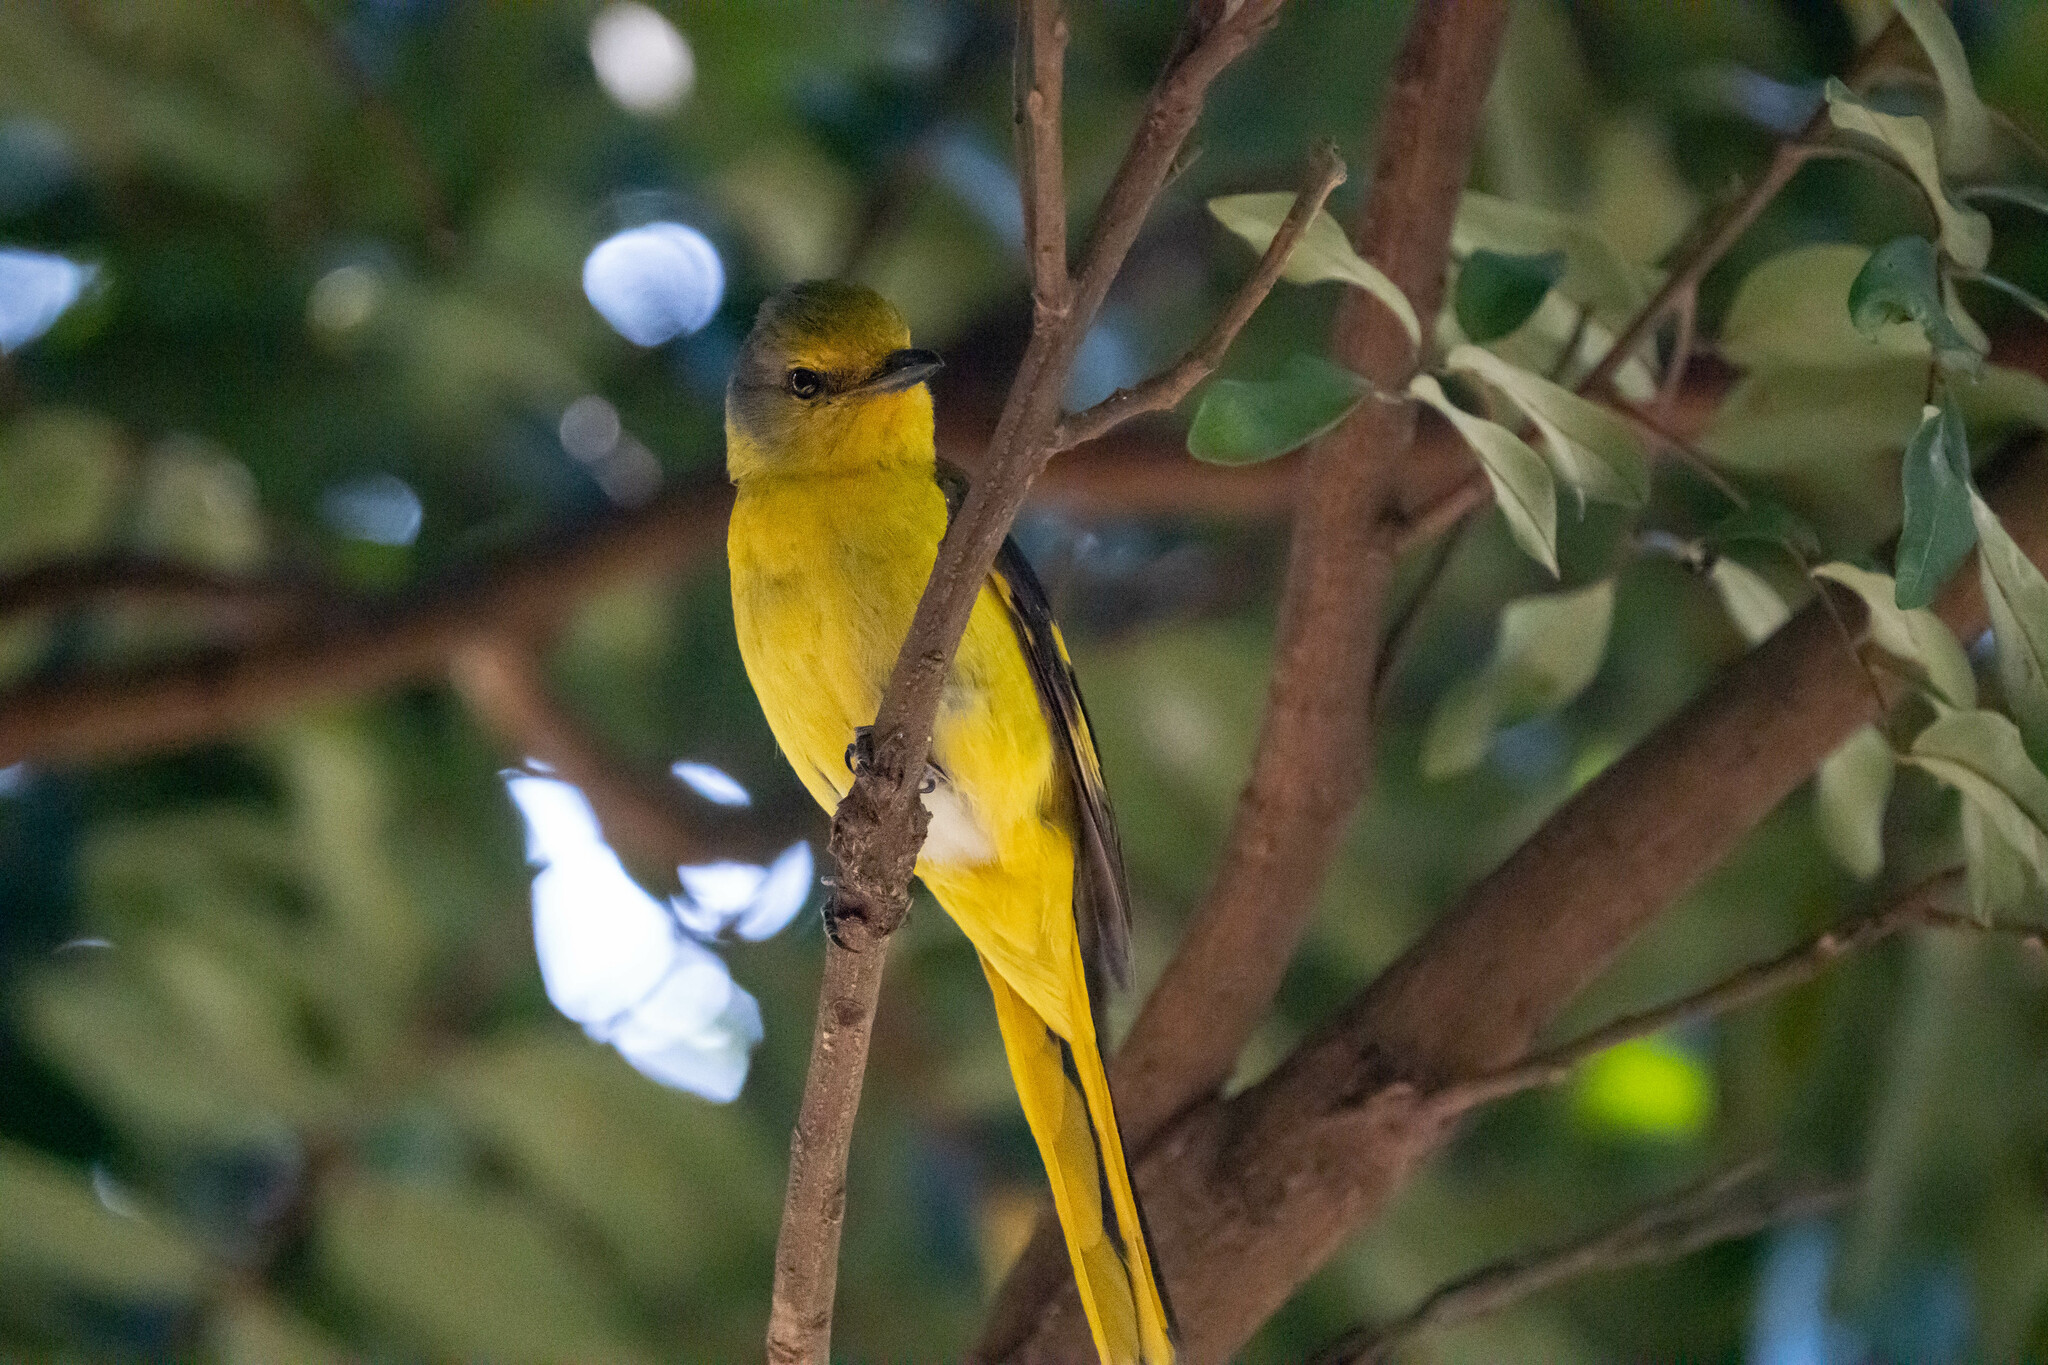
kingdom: Animalia
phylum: Chordata
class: Aves
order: Passeriformes
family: Campephagidae
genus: Pericrocotus
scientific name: Pericrocotus speciosus
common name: Scarlet minivet
